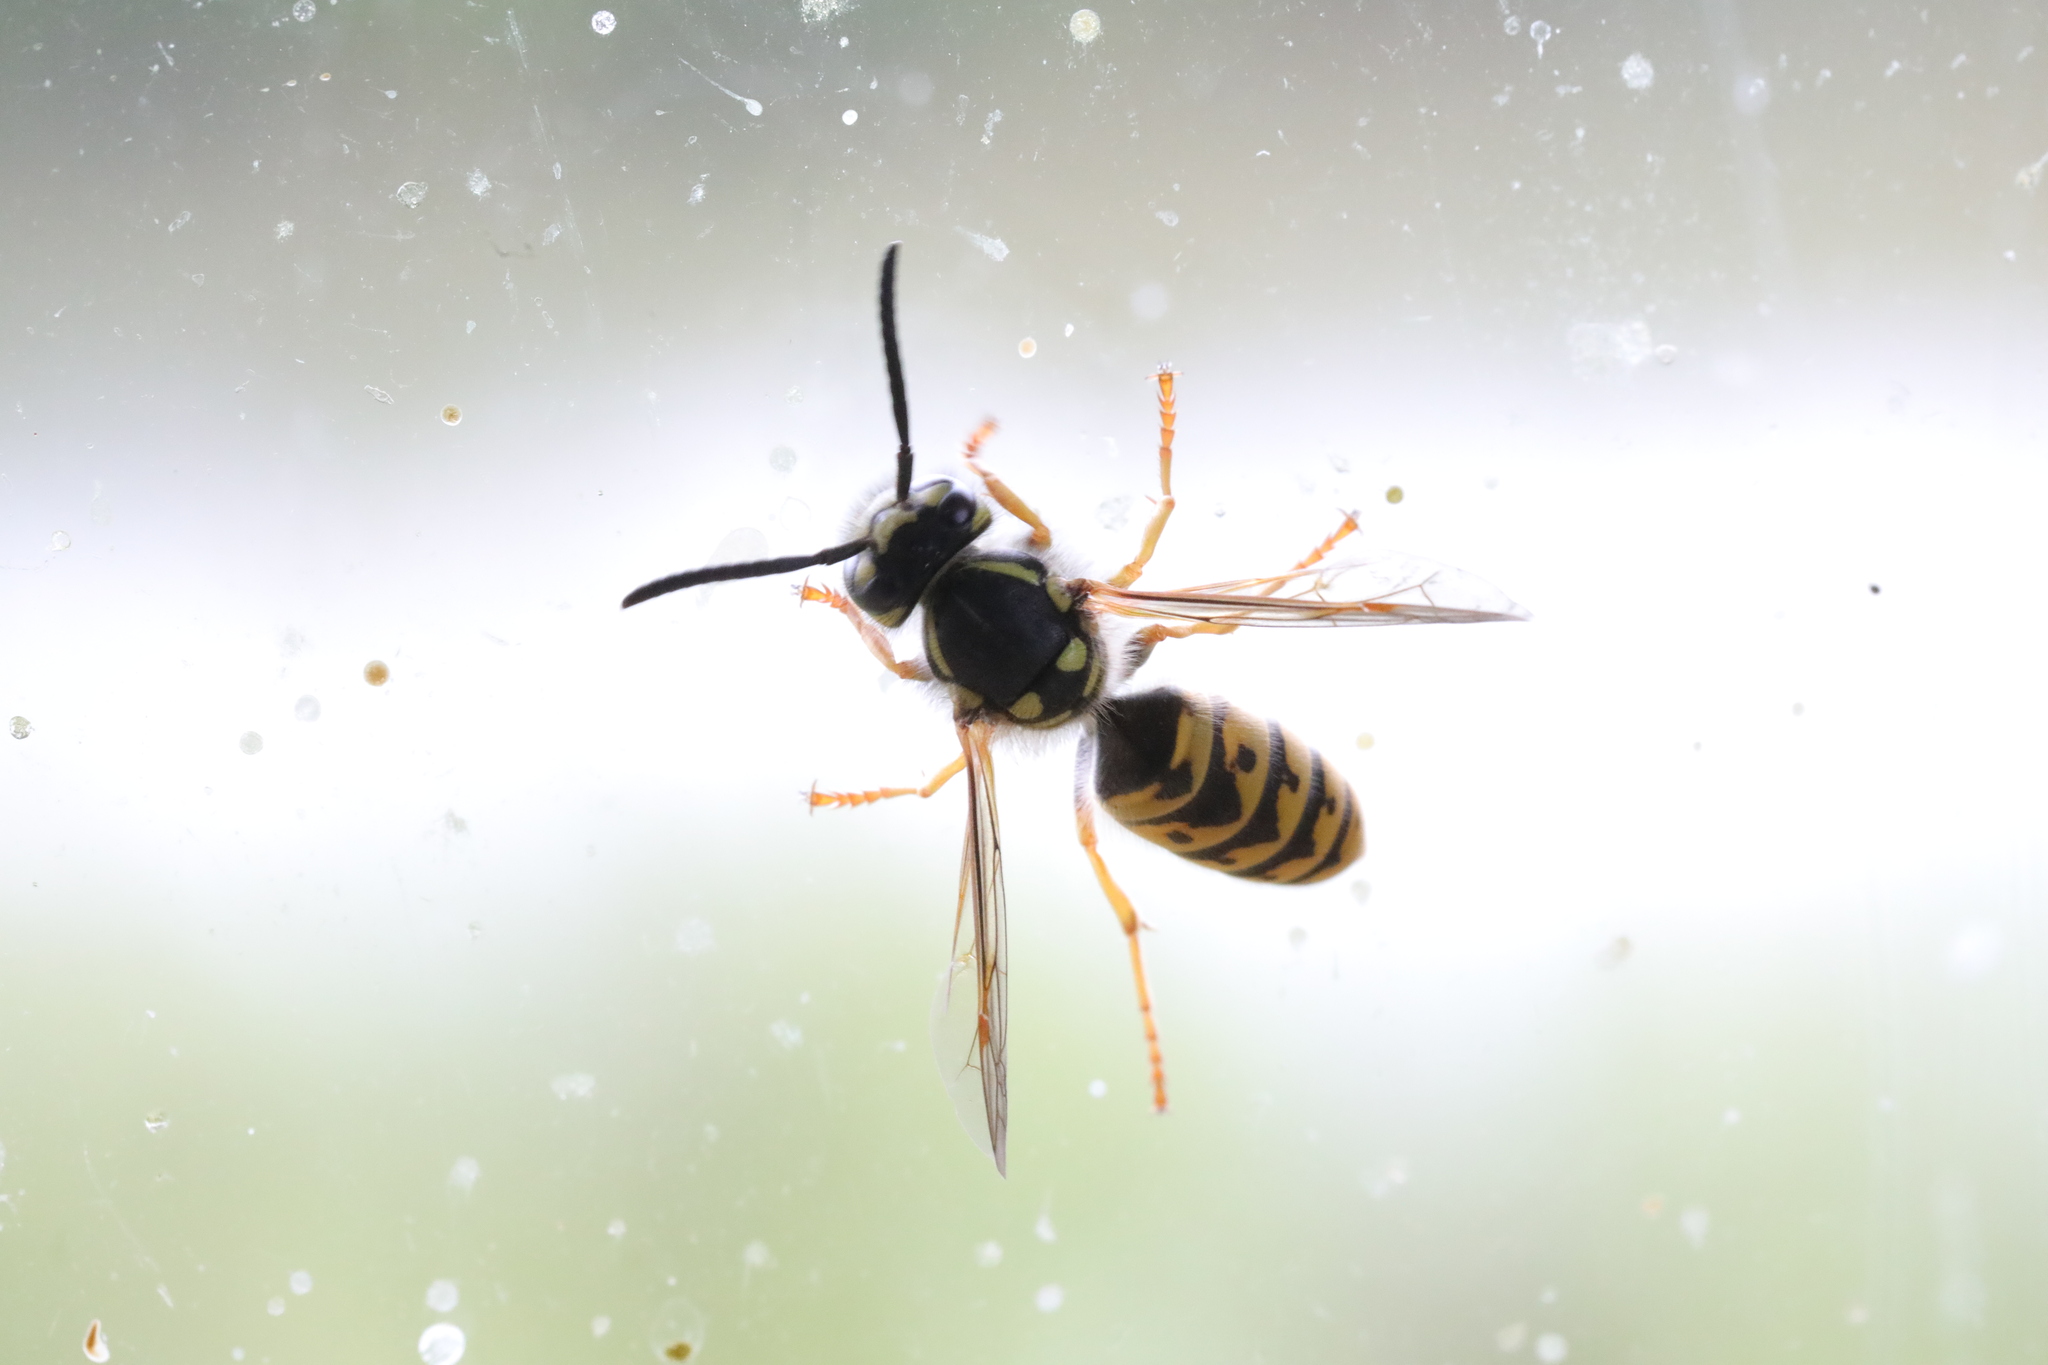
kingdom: Animalia
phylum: Arthropoda
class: Insecta
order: Hymenoptera
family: Vespidae
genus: Vespula
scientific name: Vespula germanica
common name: German wasp
